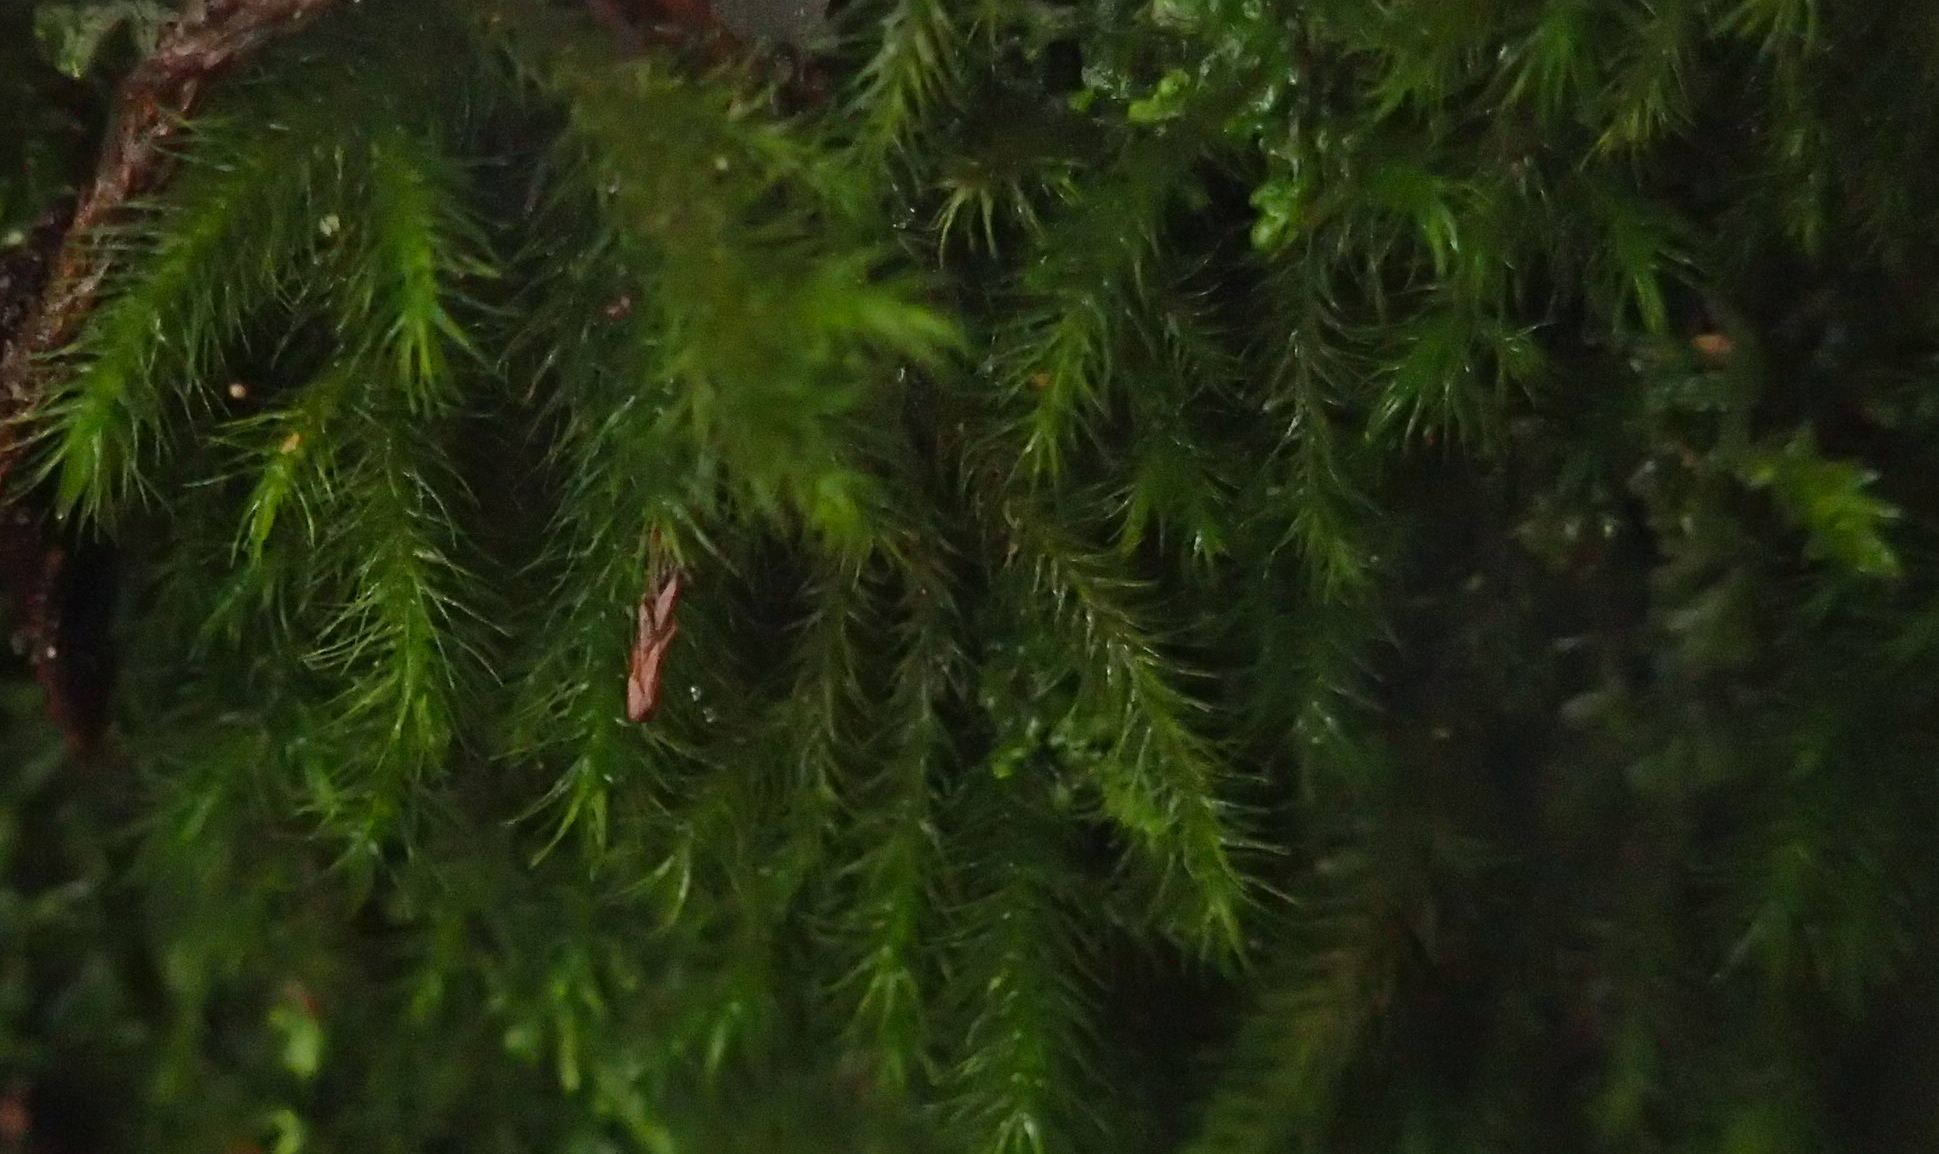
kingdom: Plantae
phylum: Bryophyta
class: Bryopsida
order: Hypnales
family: Neckeraceae
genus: Echinodiopsis
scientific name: Echinodiopsis hispida
